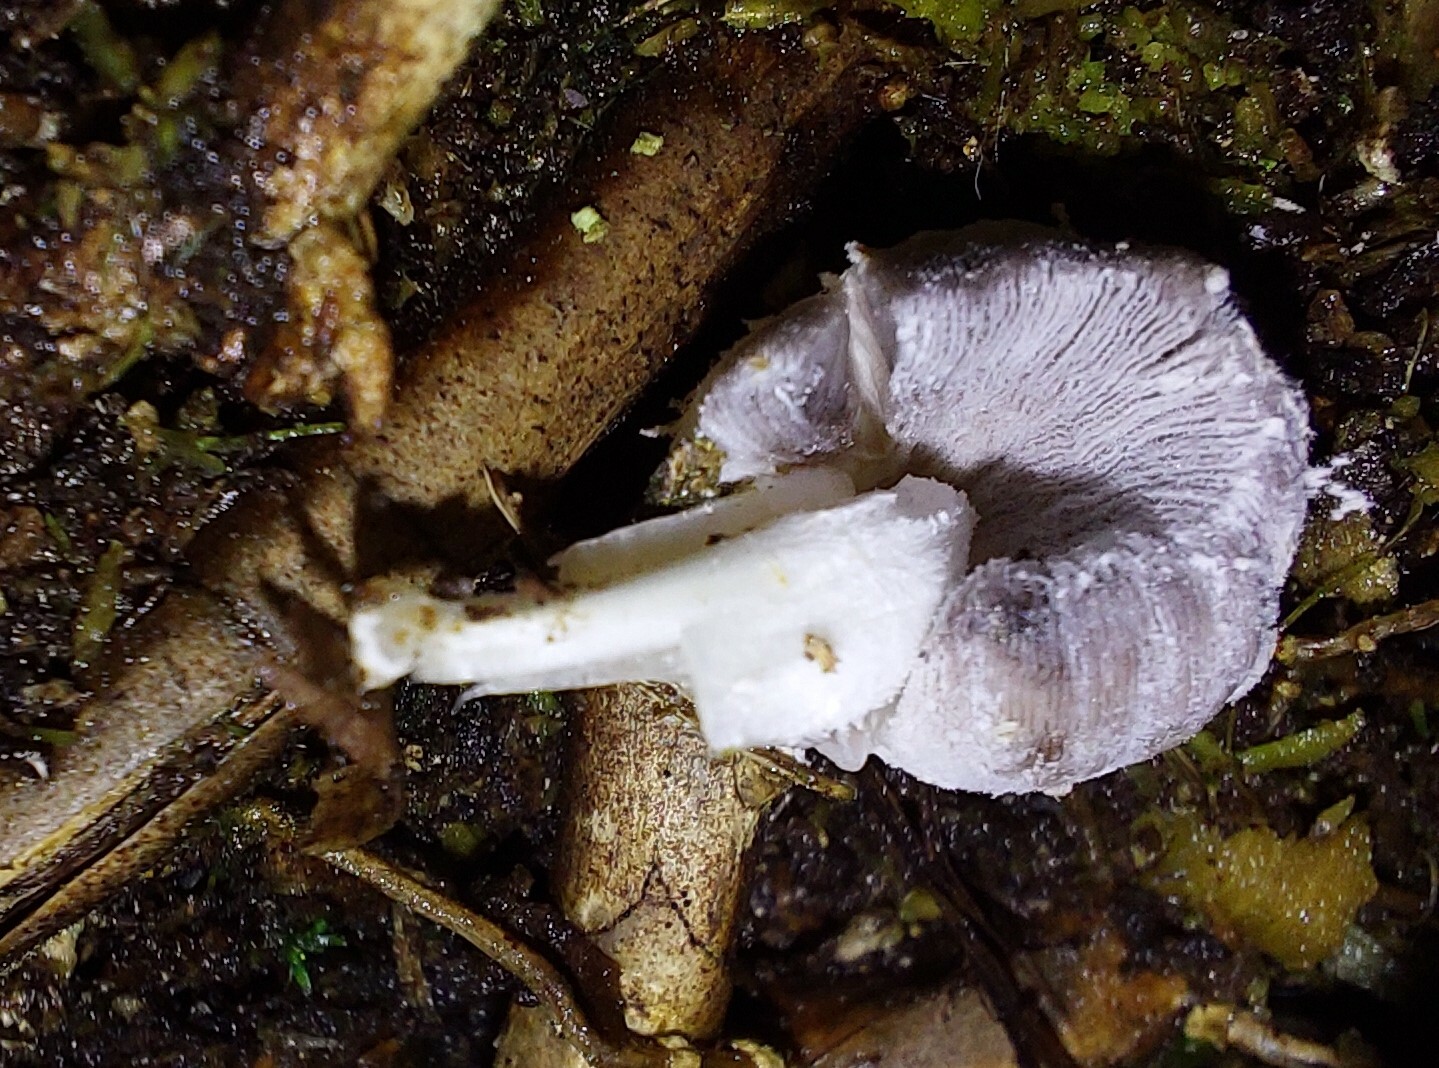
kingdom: Fungi
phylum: Basidiomycota
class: Agaricomycetes
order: Agaricales
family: Psathyrellaceae
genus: Coprinopsis
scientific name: Coprinopsis laanii
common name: Dotty inkcap
